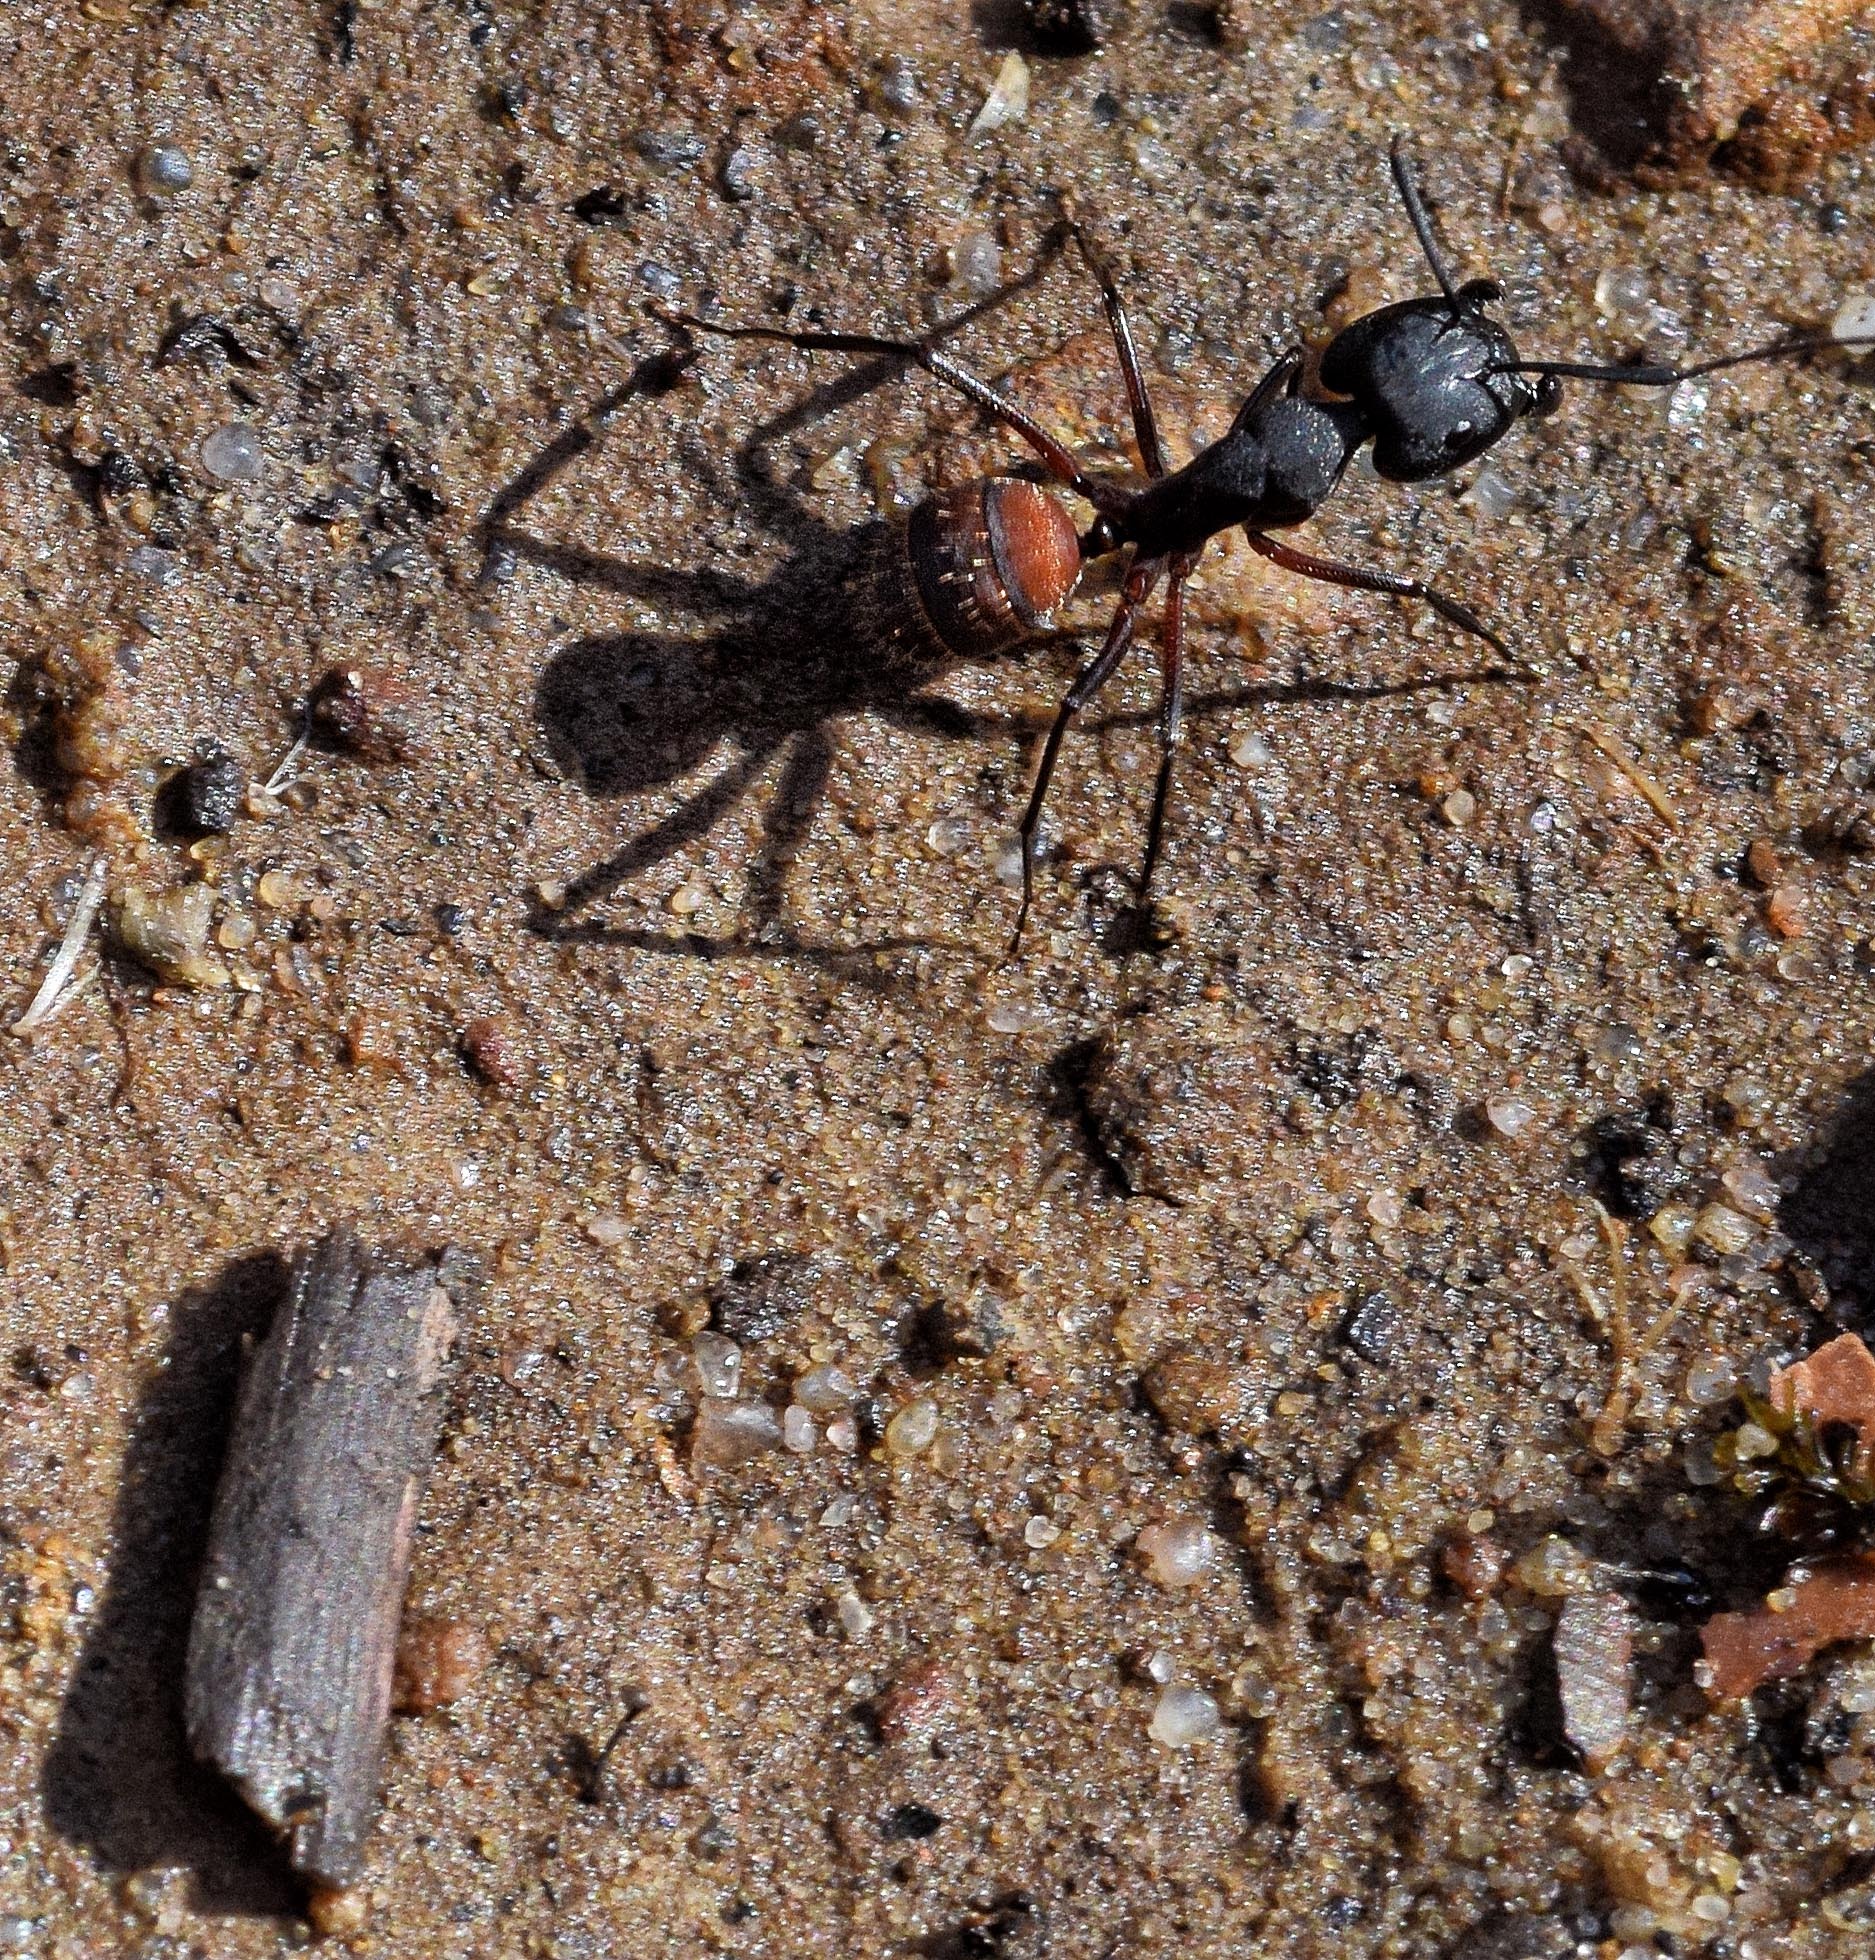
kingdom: Animalia
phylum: Arthropoda
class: Insecta
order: Hymenoptera
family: Formicidae
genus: Camponotus
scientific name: Camponotus cruentatus
